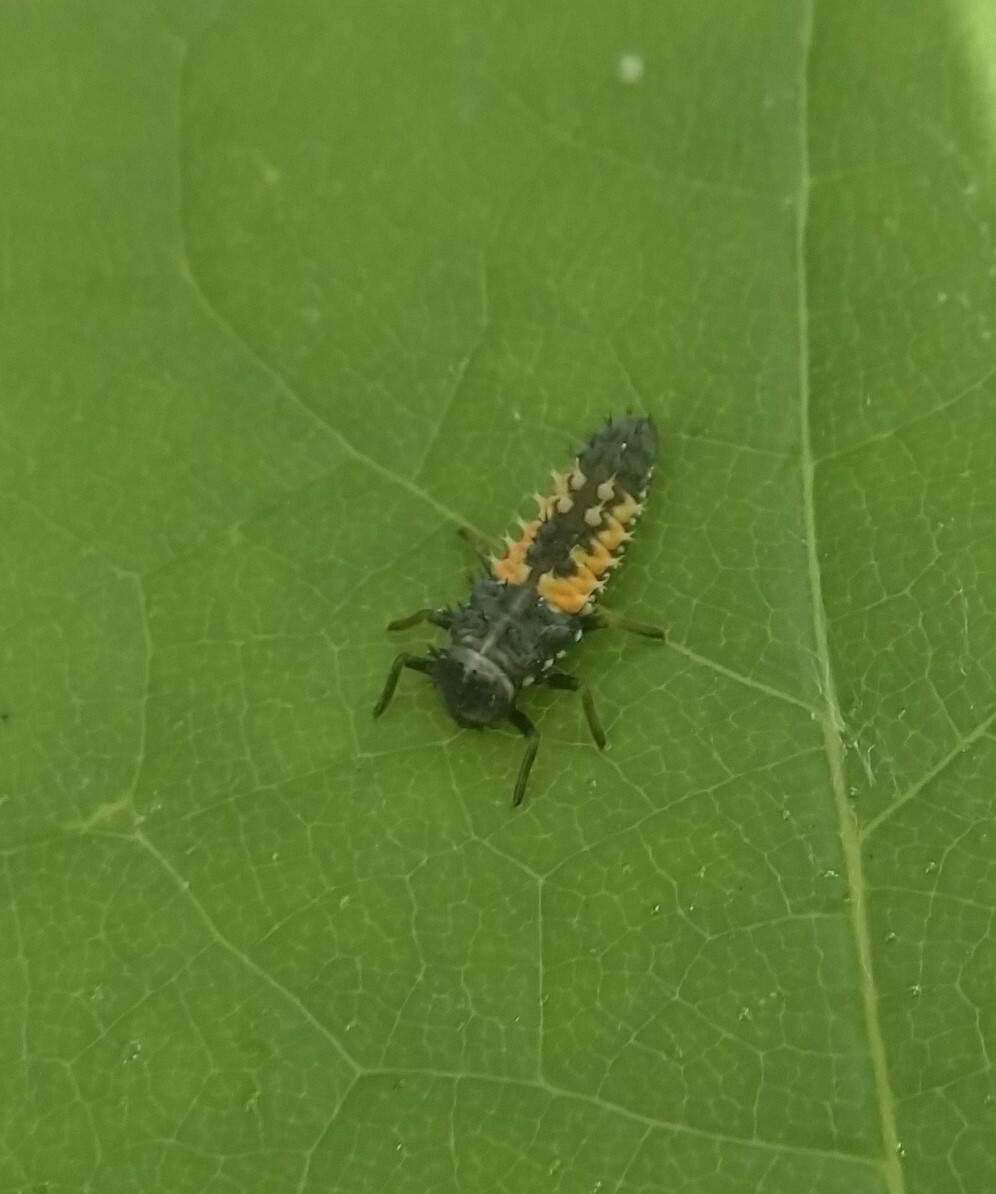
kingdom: Animalia
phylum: Arthropoda
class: Insecta
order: Coleoptera
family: Coccinellidae
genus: Harmonia
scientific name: Harmonia axyridis
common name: Harlequin ladybird
